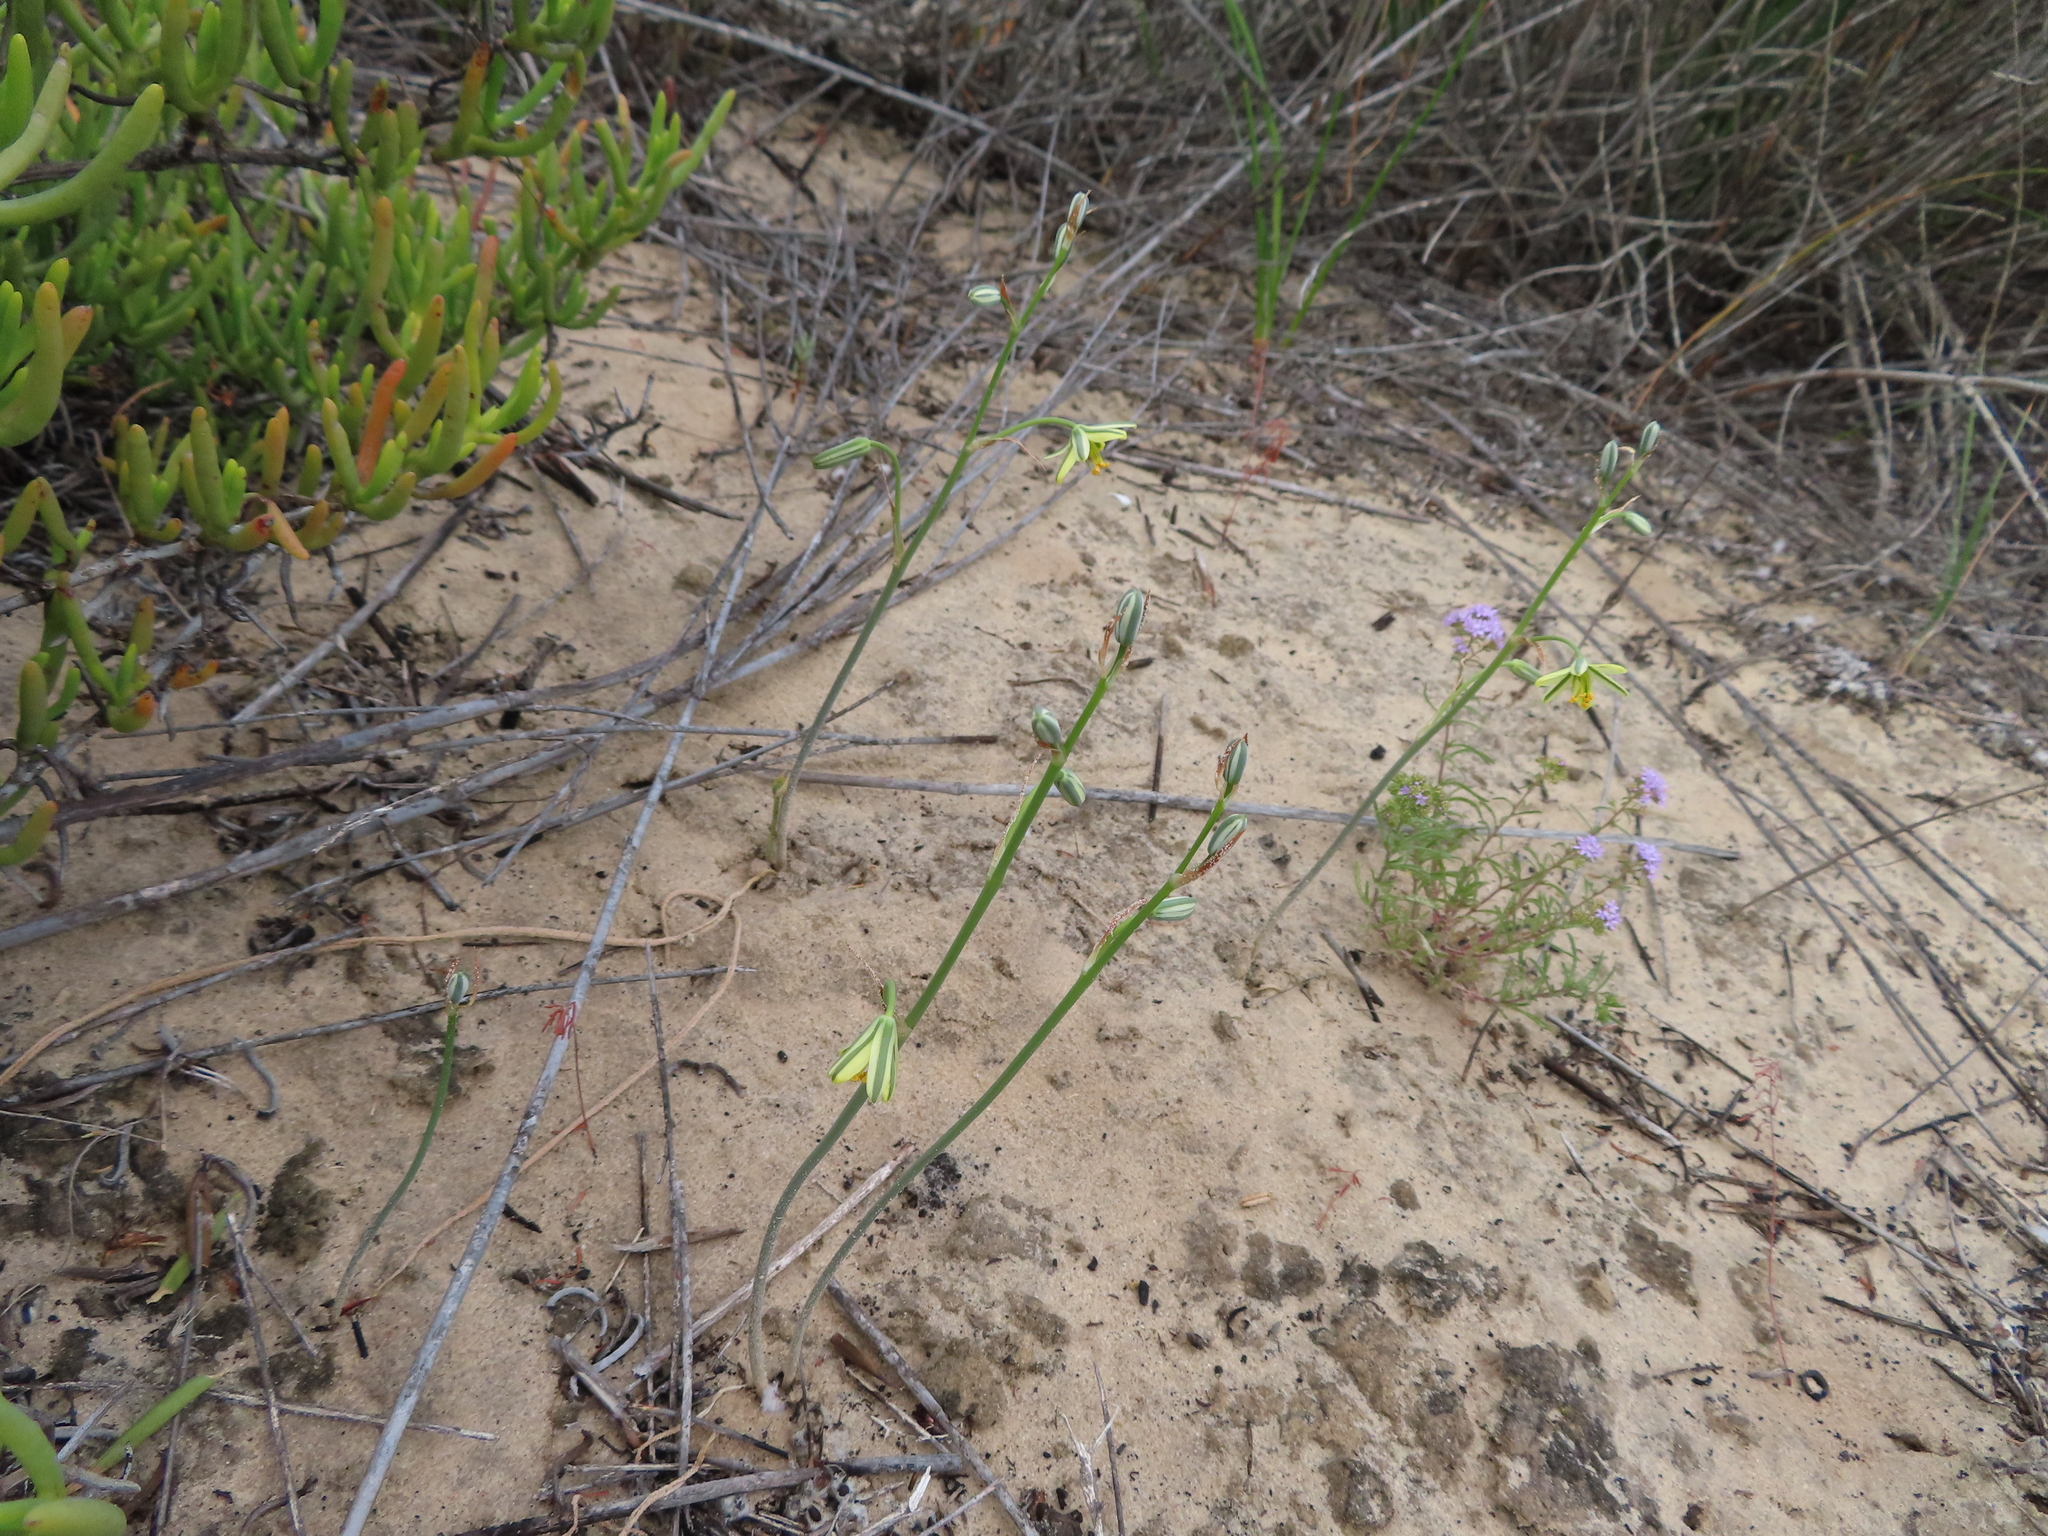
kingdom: Plantae
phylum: Tracheophyta
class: Liliopsida
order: Asparagales
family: Asparagaceae
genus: Albuca
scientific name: Albuca suaveolens
